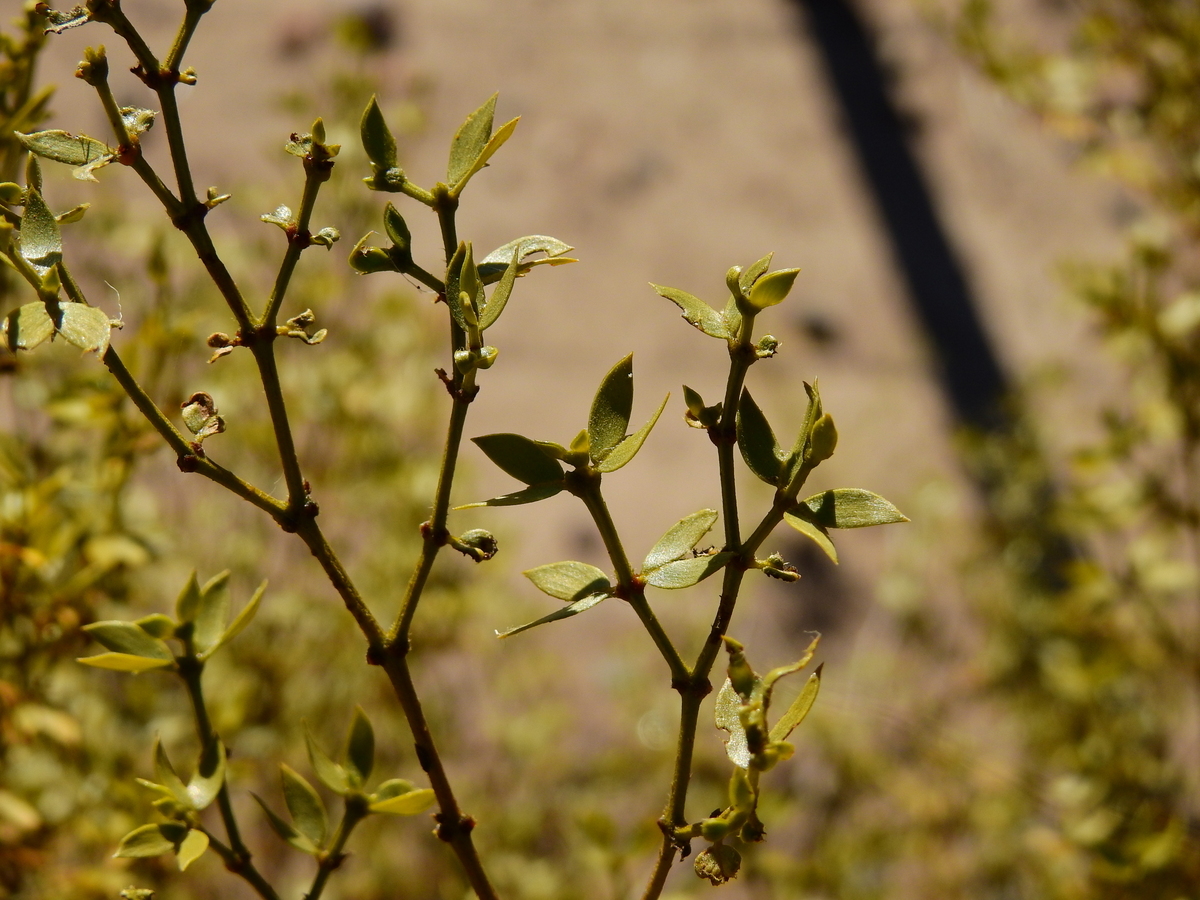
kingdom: Plantae
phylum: Tracheophyta
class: Magnoliopsida
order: Zygophyllales
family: Zygophyllaceae
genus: Larrea
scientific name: Larrea divaricata
